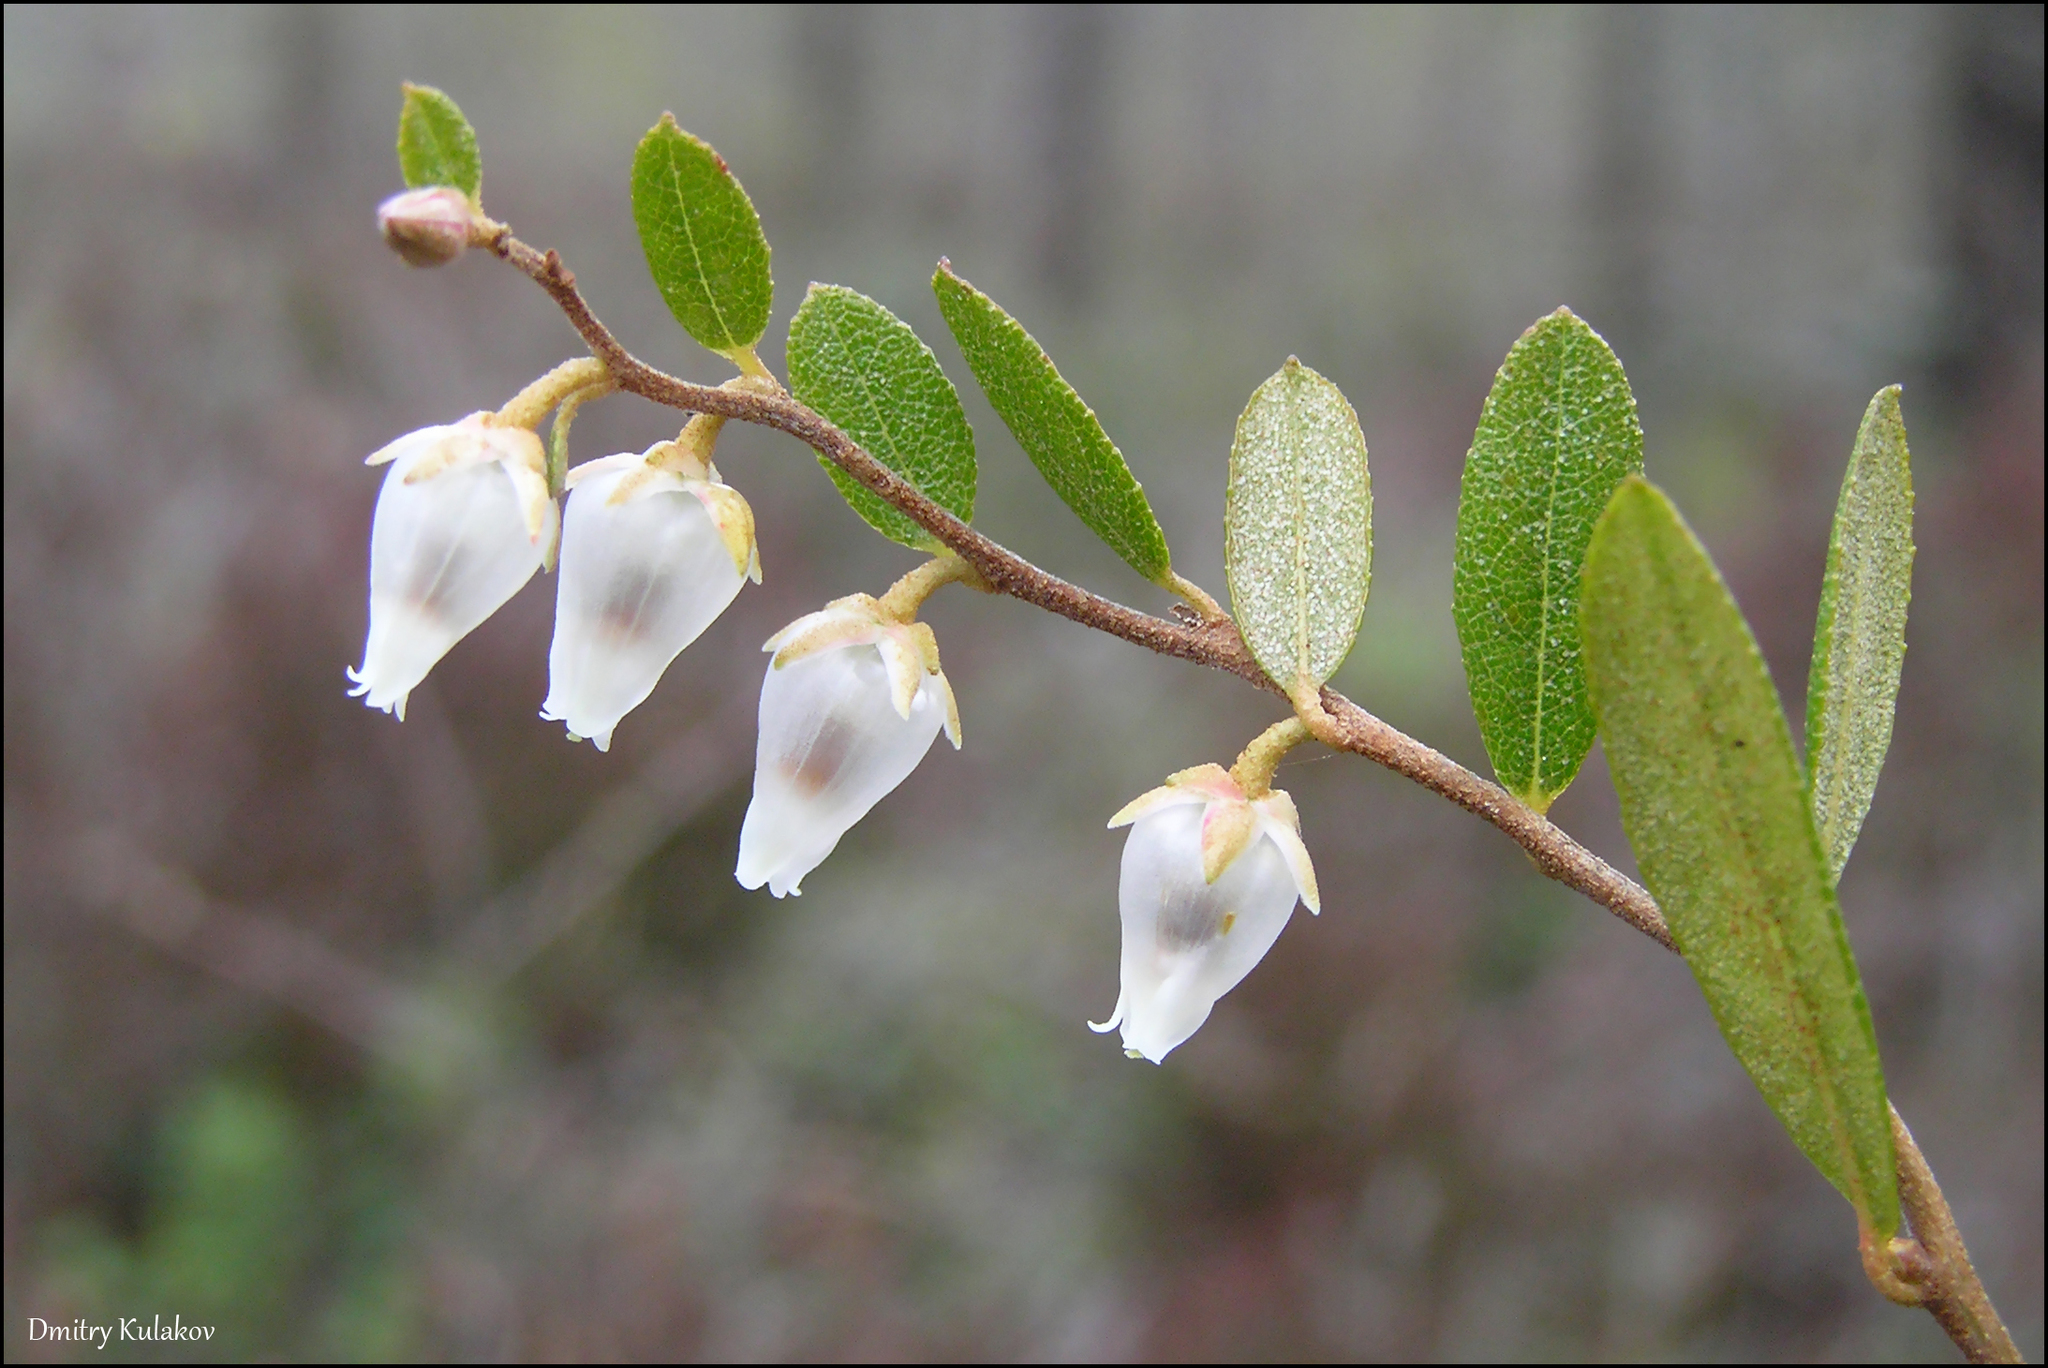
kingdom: Plantae
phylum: Tracheophyta
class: Magnoliopsida
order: Ericales
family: Ericaceae
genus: Chamaedaphne
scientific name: Chamaedaphne calyculata
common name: Leatherleaf
